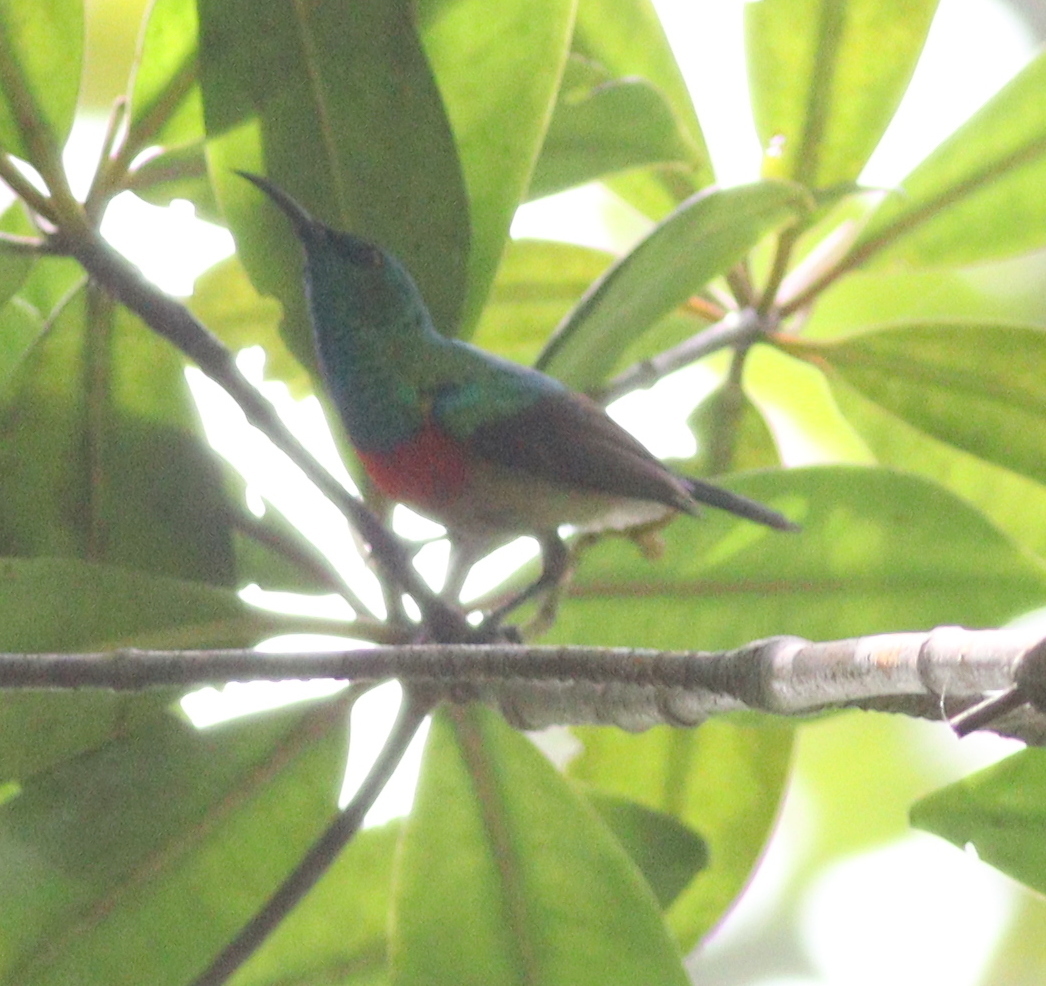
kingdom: Animalia
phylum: Chordata
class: Aves
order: Passeriformes
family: Nectariniidae
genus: Cinnyris
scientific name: Cinnyris chloropygius
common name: Olive-bellied sunbird
